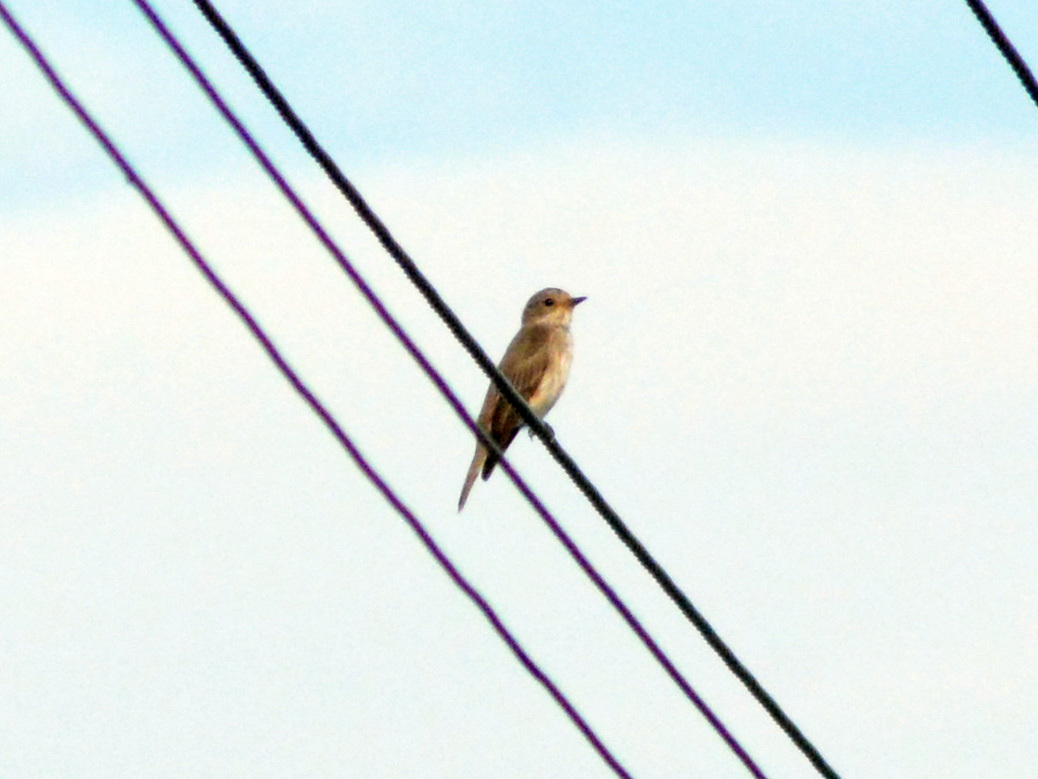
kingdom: Animalia
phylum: Chordata
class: Aves
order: Passeriformes
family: Muscicapidae
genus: Muscicapa
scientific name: Muscicapa striata
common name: Spotted flycatcher
